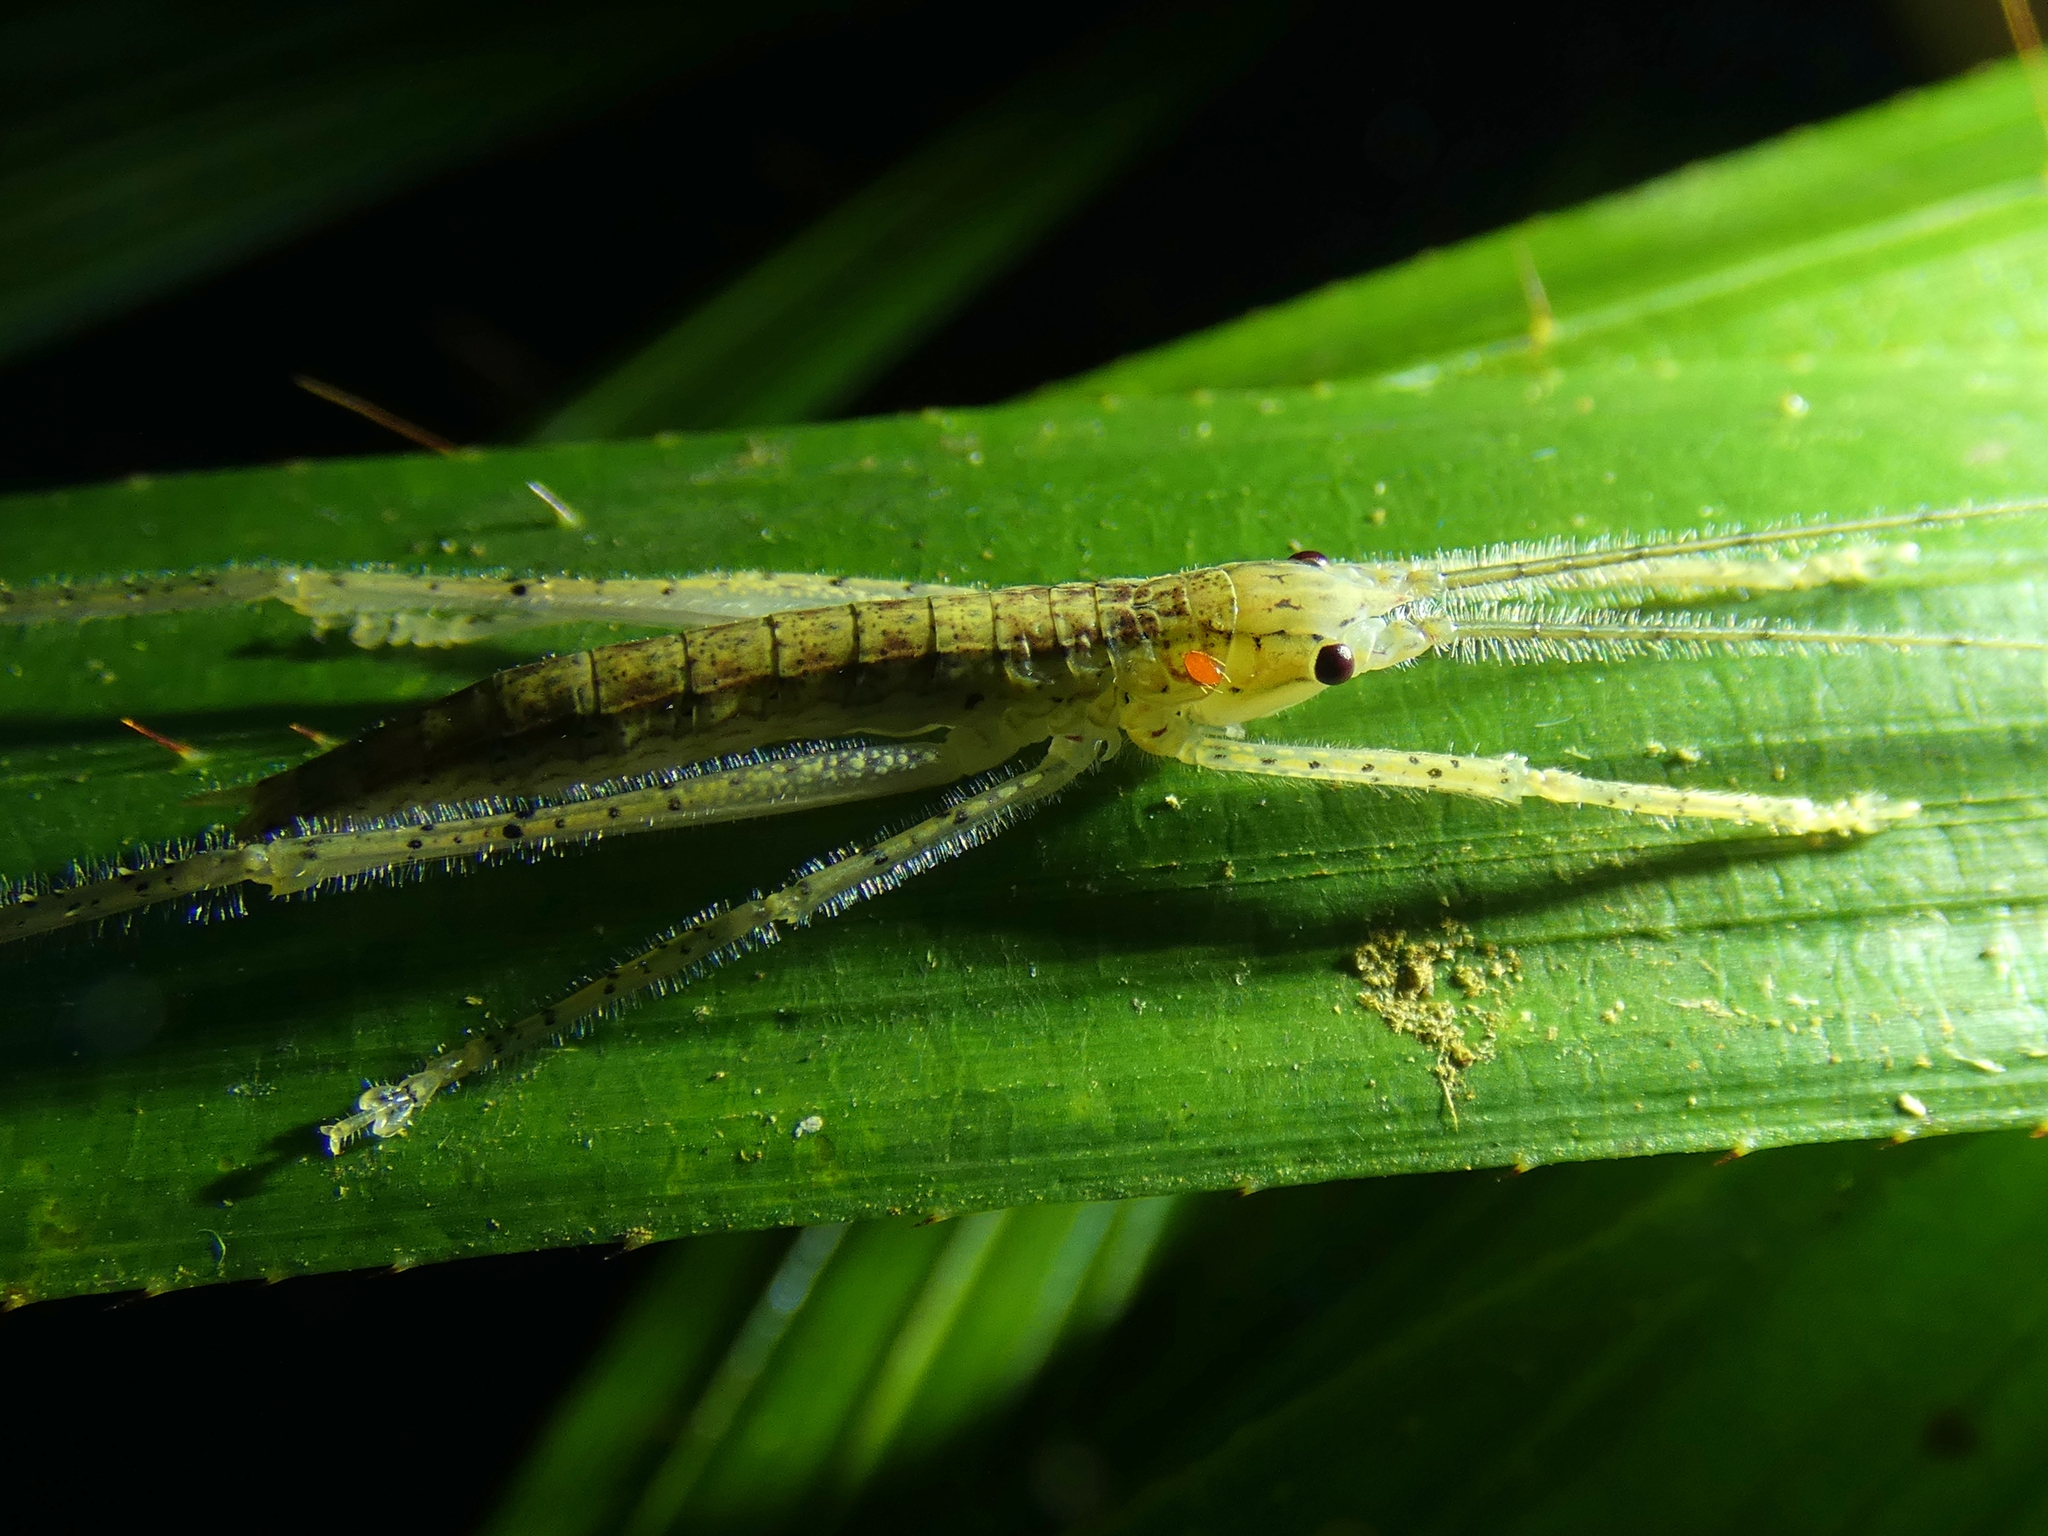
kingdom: Animalia
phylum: Arthropoda
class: Insecta
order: Orthoptera
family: Tettigoniidae
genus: Segestidea
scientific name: Segestidea queenslandica
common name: Queensland palm katydid
